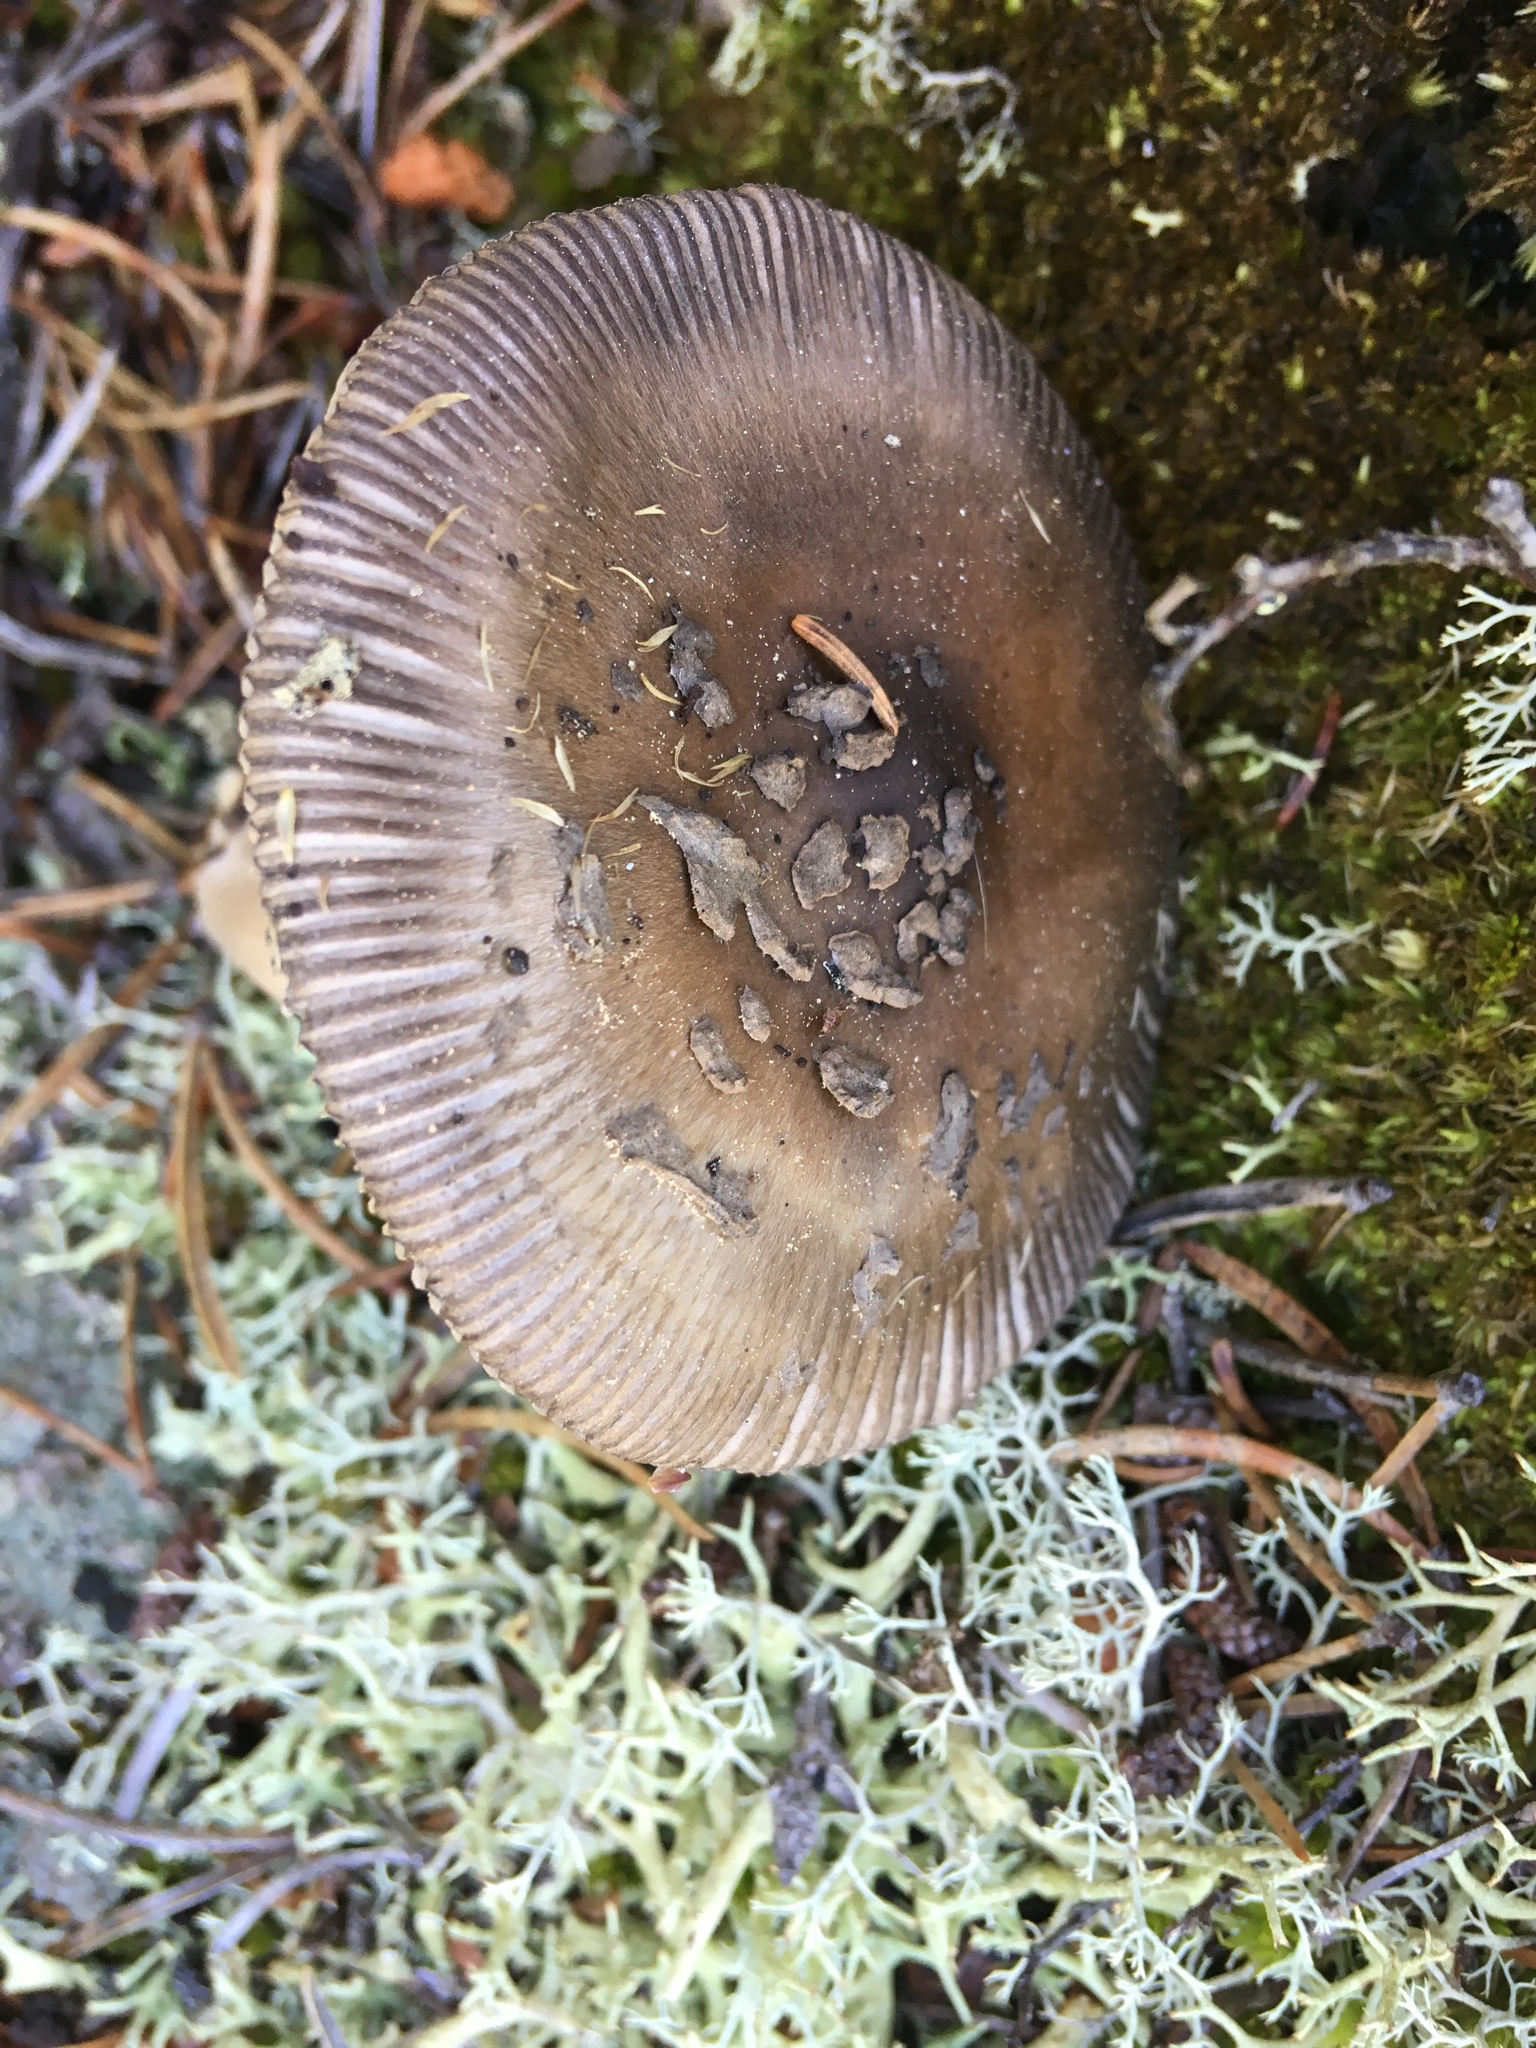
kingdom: Fungi
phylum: Basidiomycota
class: Agaricomycetes
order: Agaricales
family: Amanitaceae
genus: Amanita
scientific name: Amanita vaginata
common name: Grisette
